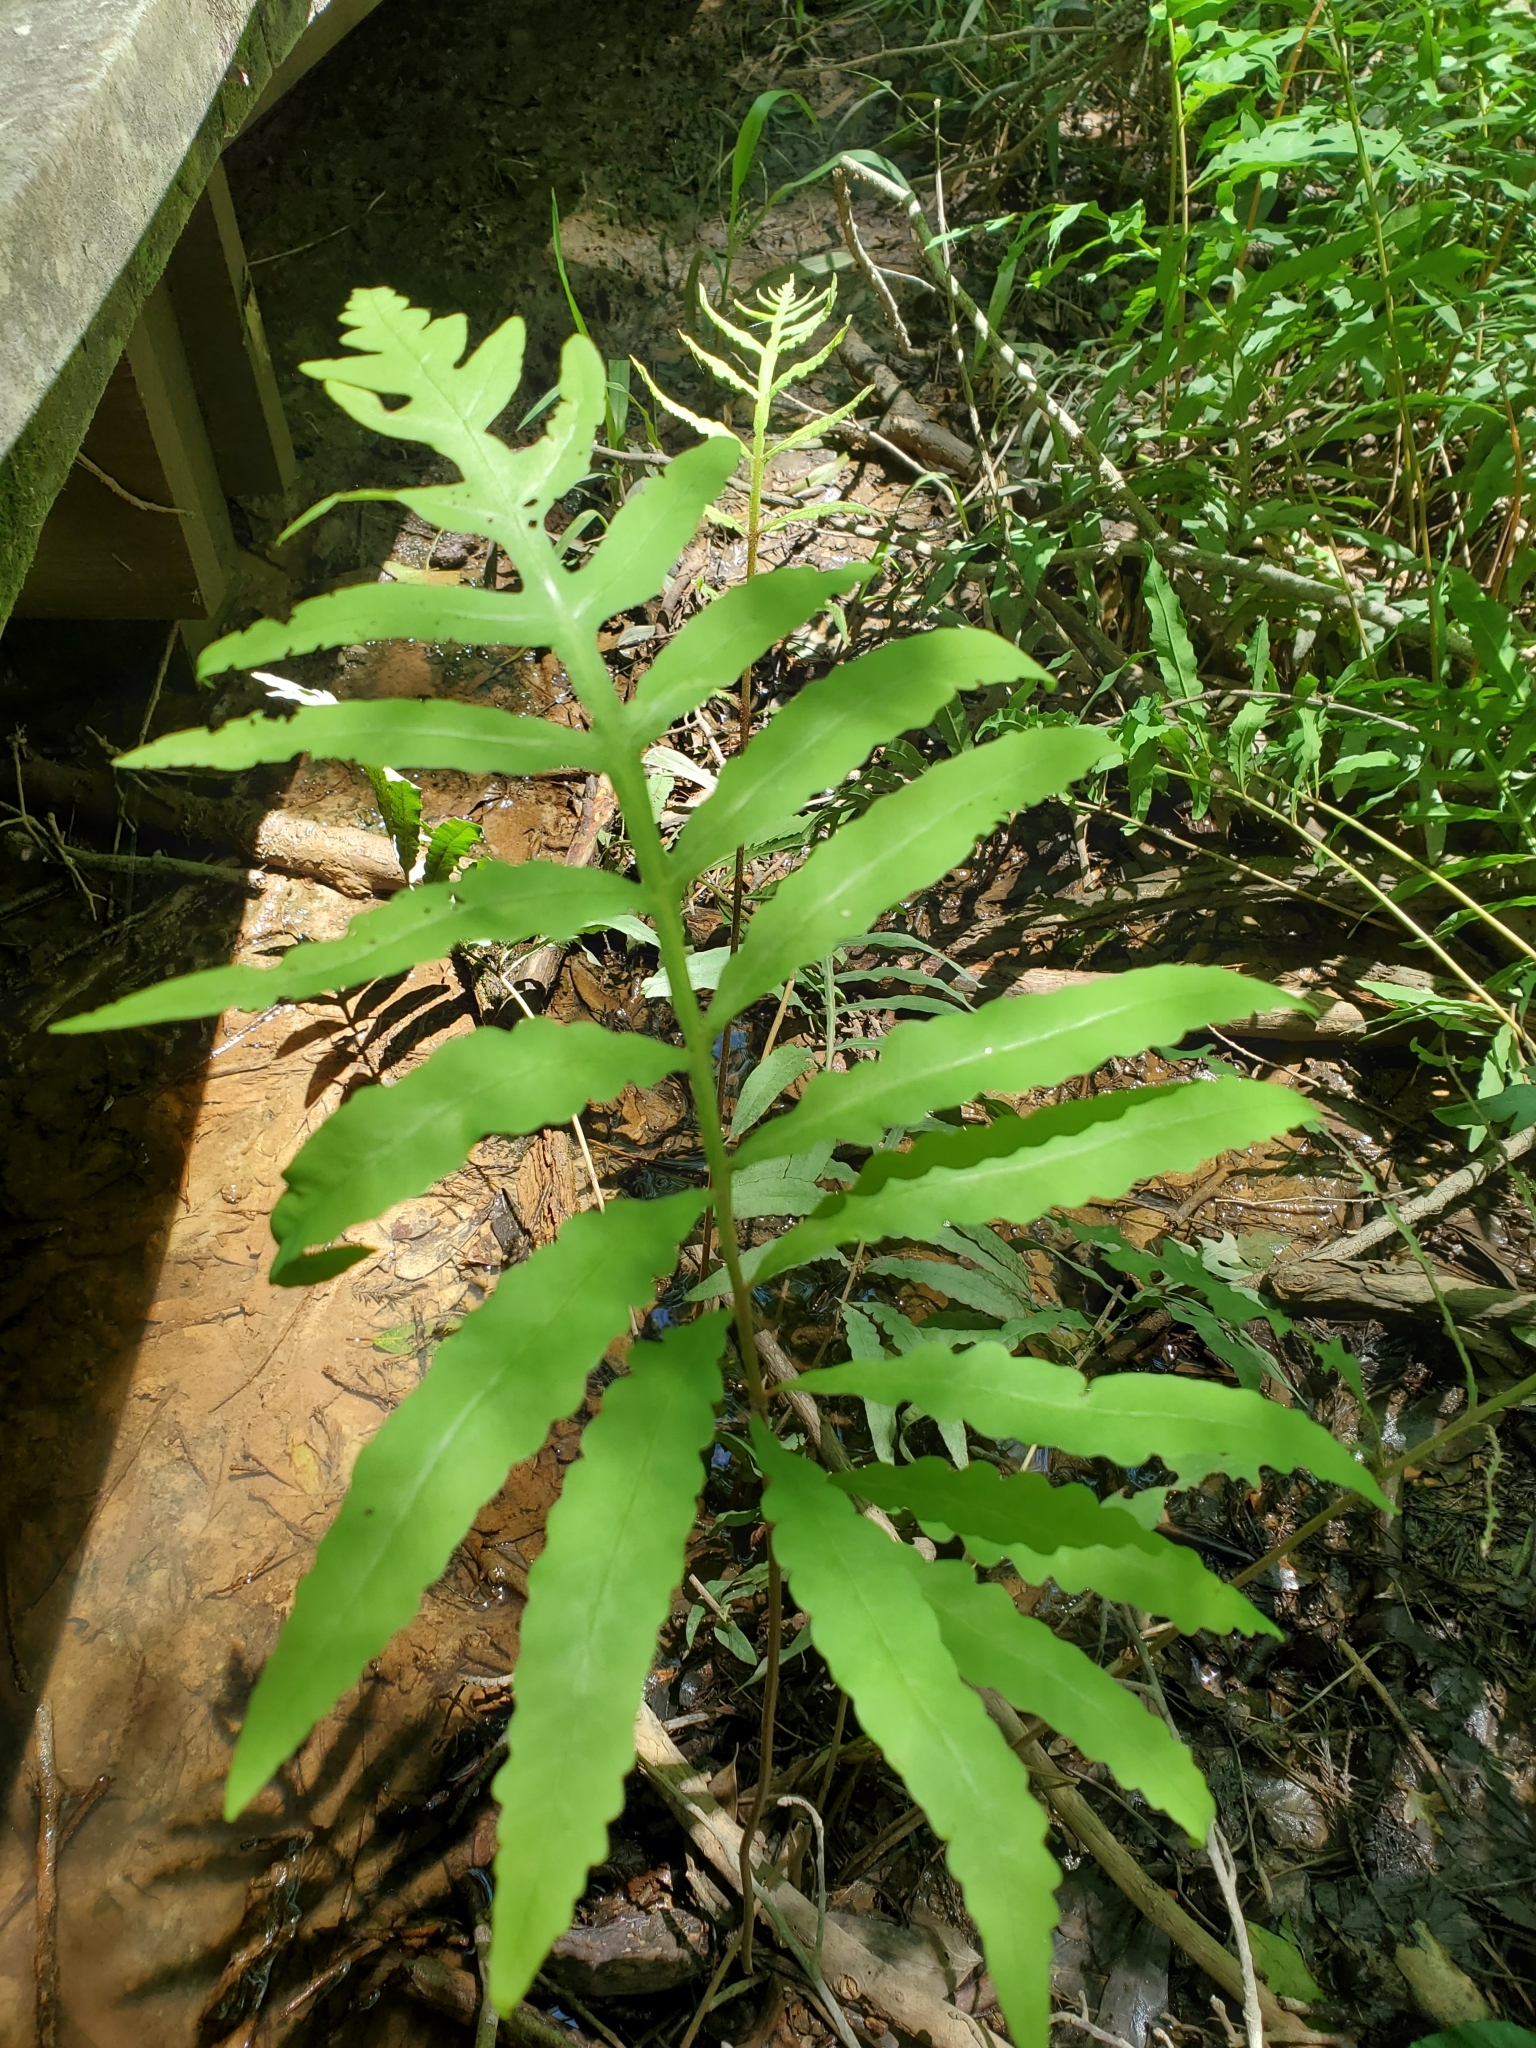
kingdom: Plantae
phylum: Tracheophyta
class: Polypodiopsida
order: Polypodiales
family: Onocleaceae
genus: Onoclea
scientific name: Onoclea sensibilis
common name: Sensitive fern
